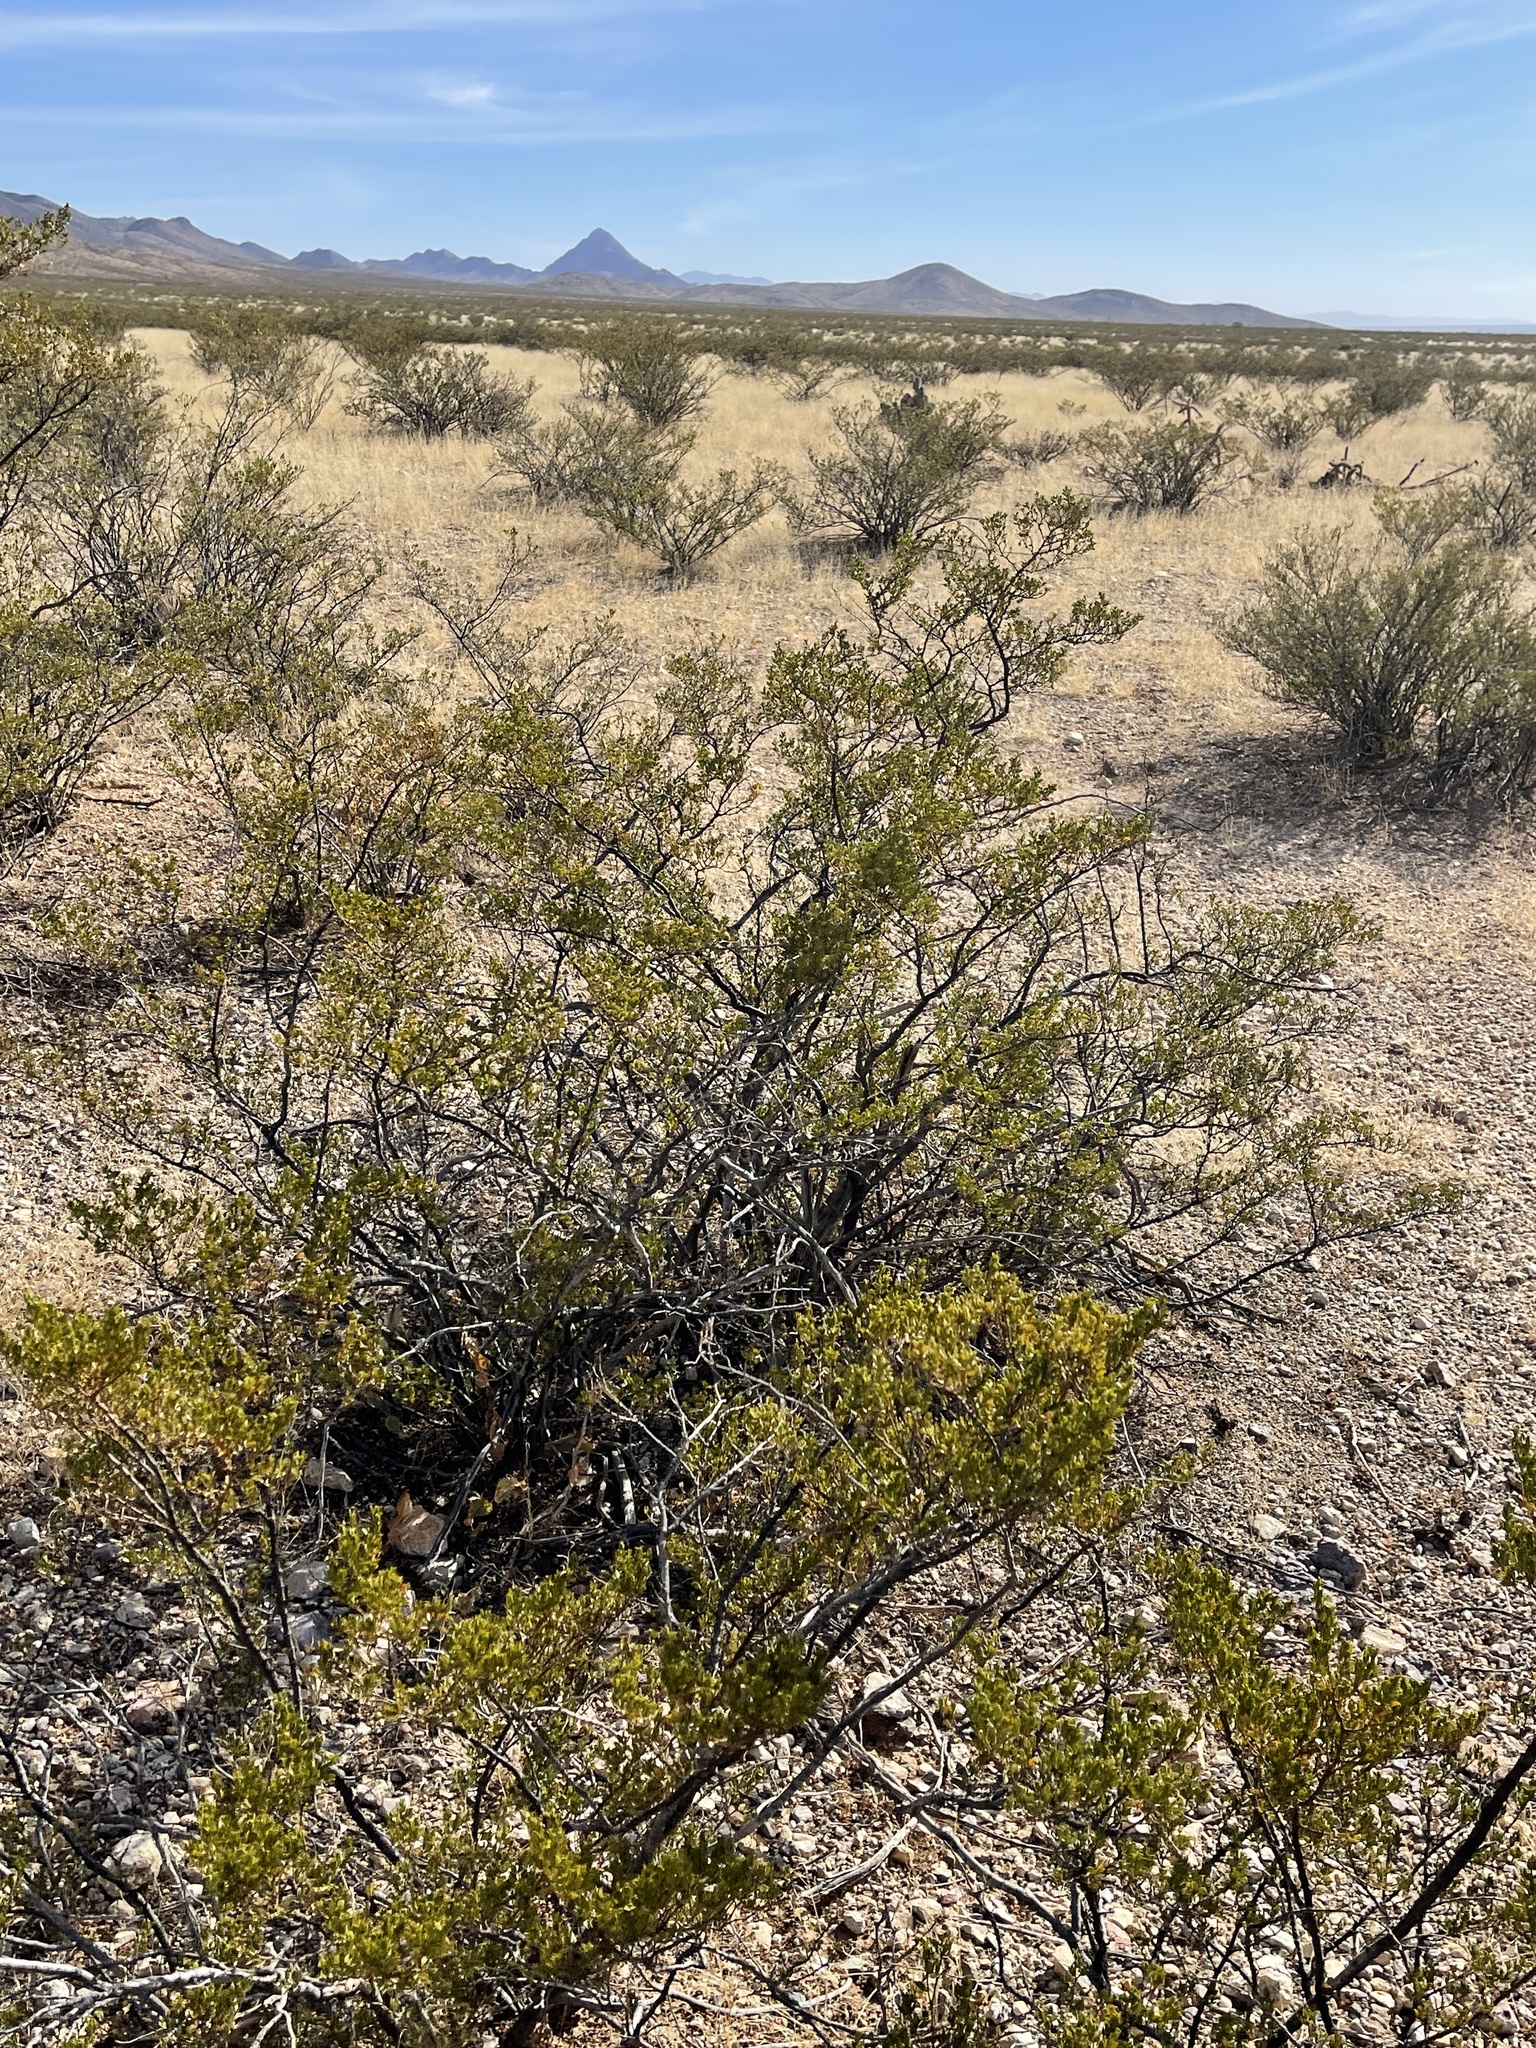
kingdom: Plantae
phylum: Tracheophyta
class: Magnoliopsida
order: Zygophyllales
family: Zygophyllaceae
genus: Larrea
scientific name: Larrea tridentata
